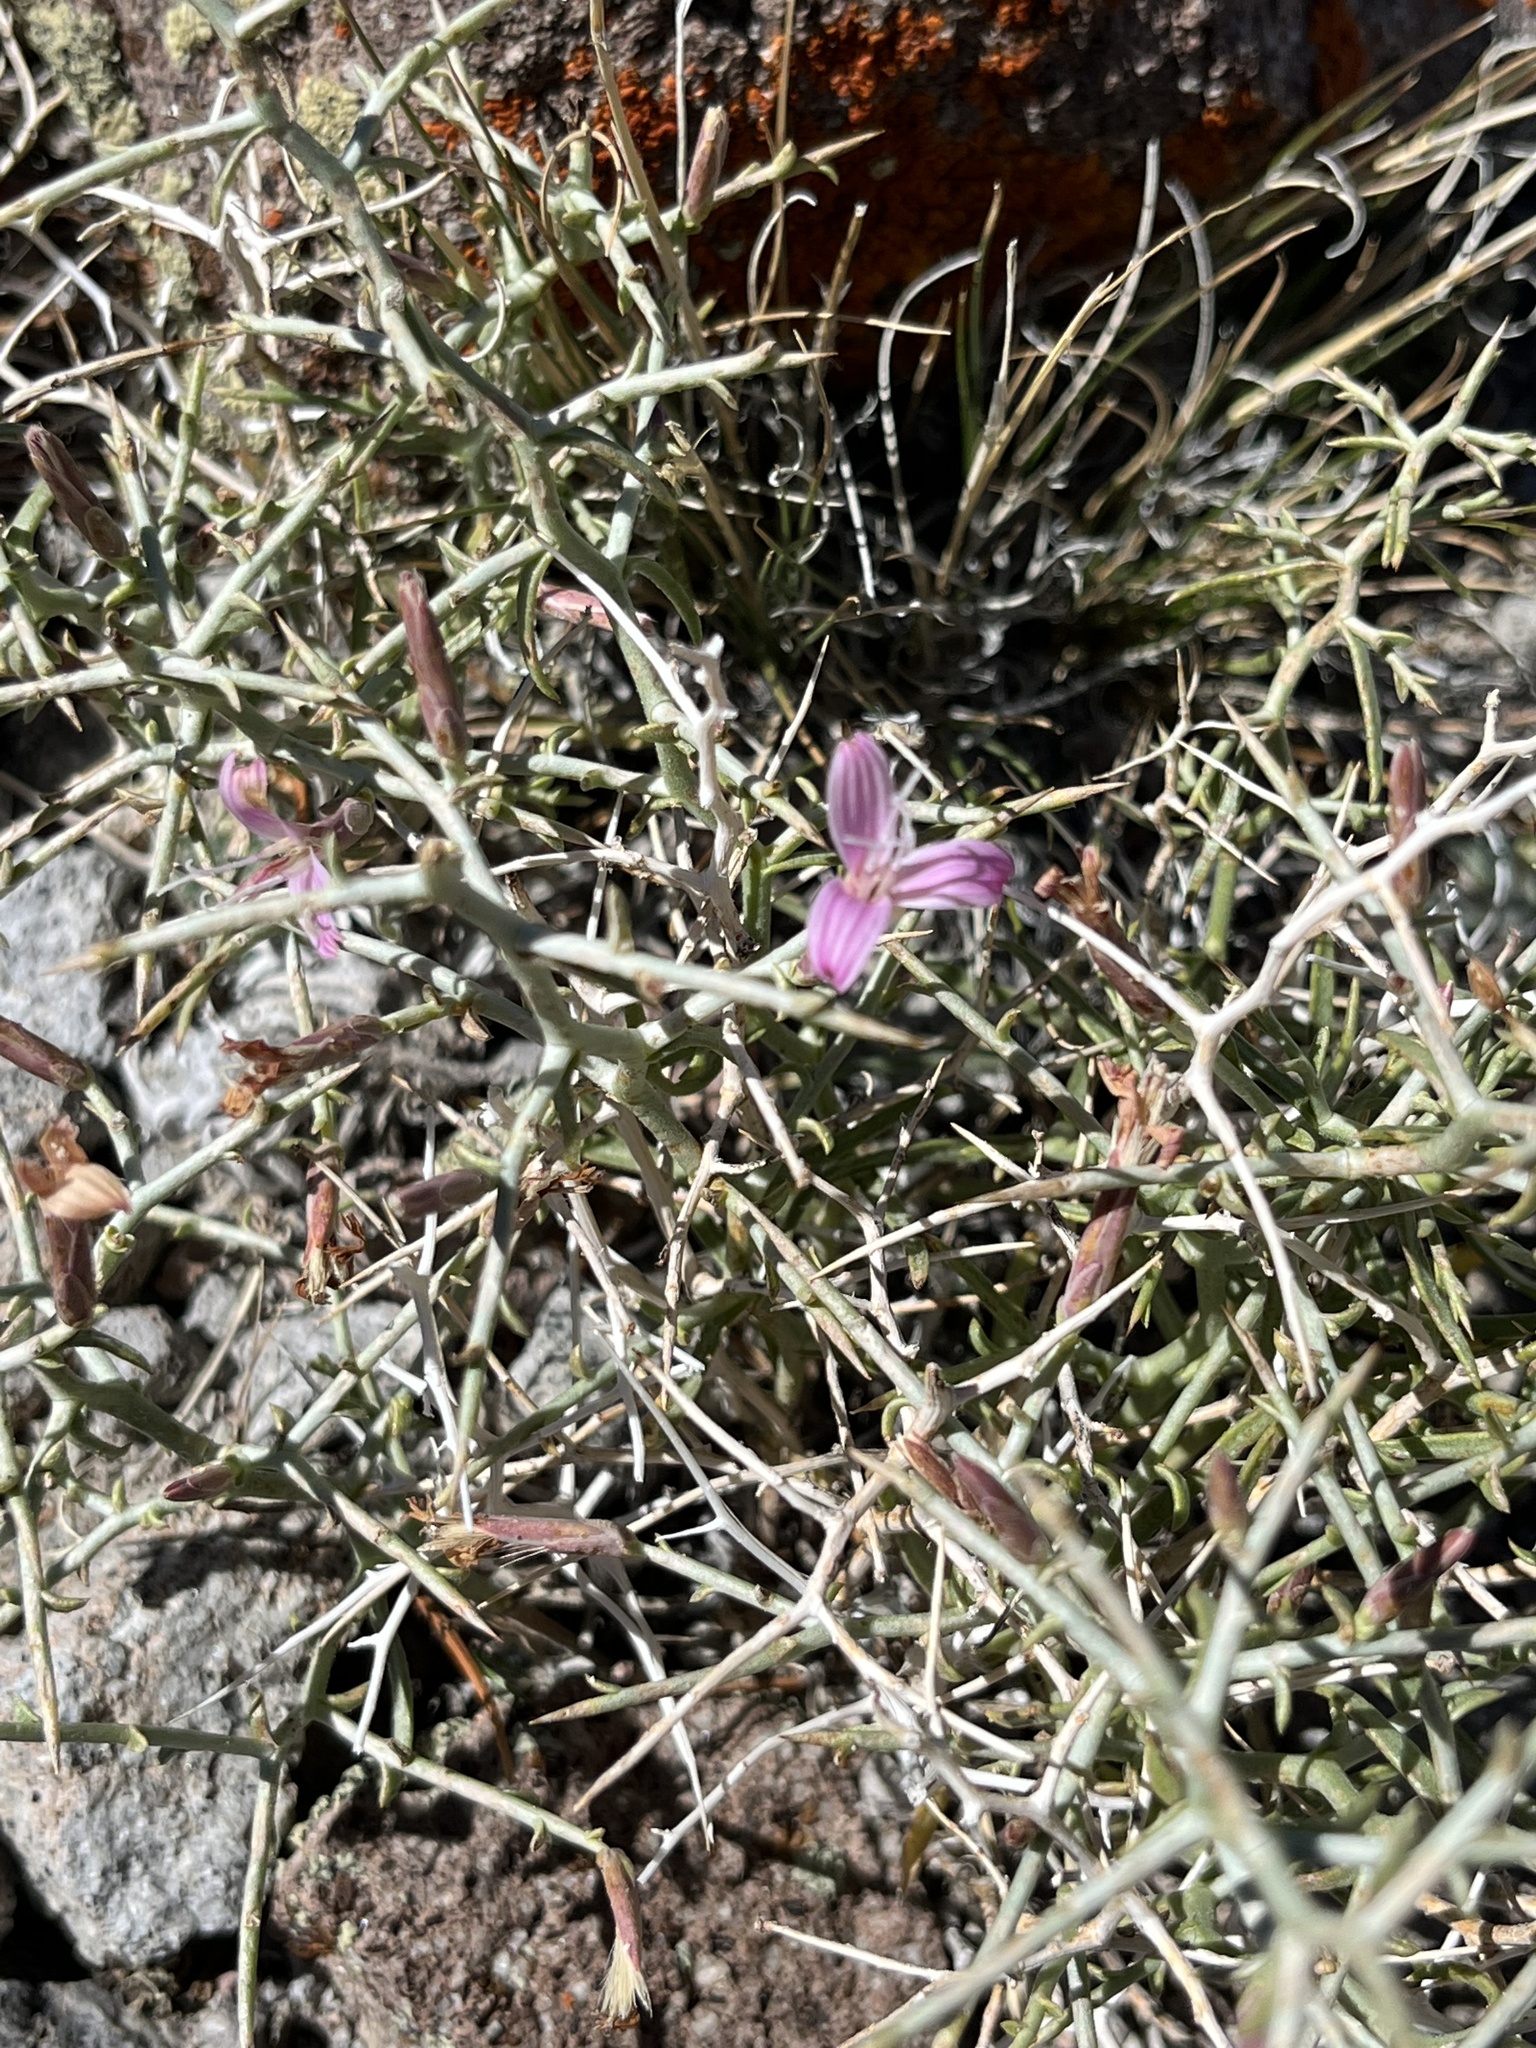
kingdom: Plantae
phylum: Tracheophyta
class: Magnoliopsida
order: Asterales
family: Asteraceae
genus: Pleiacanthus
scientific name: Pleiacanthus spinosus
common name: Thorny skeleton-weed
